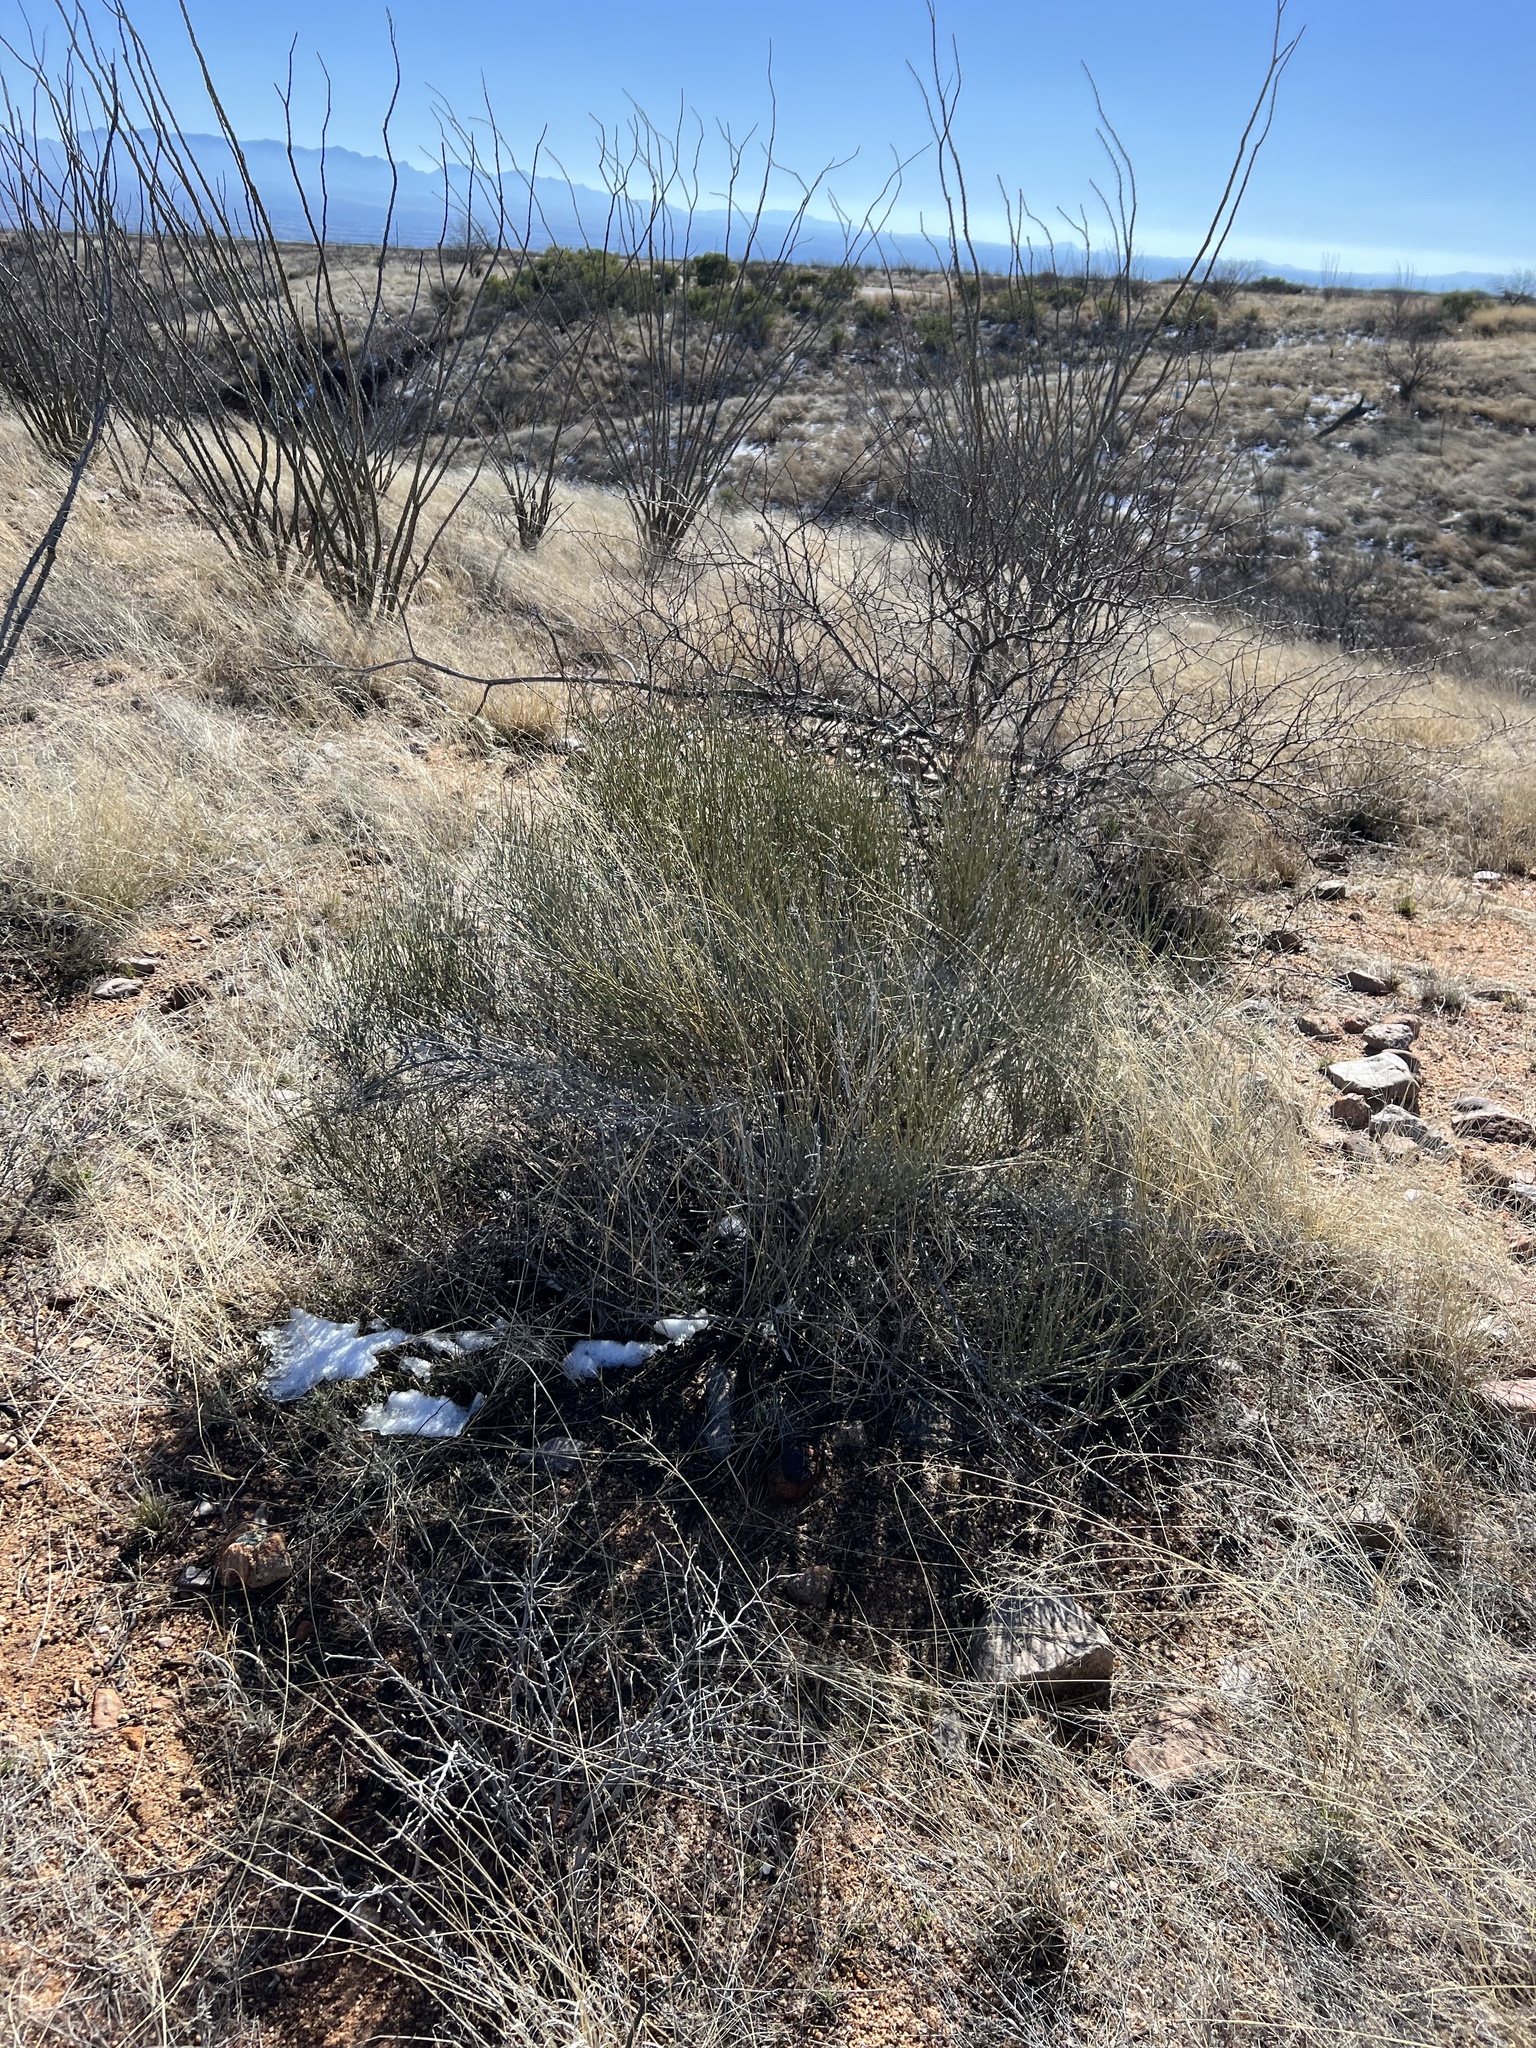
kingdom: Plantae
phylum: Tracheophyta
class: Gnetopsida
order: Ephedrales
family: Ephedraceae
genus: Ephedra
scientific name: Ephedra trifurca
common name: Mexican-tea
